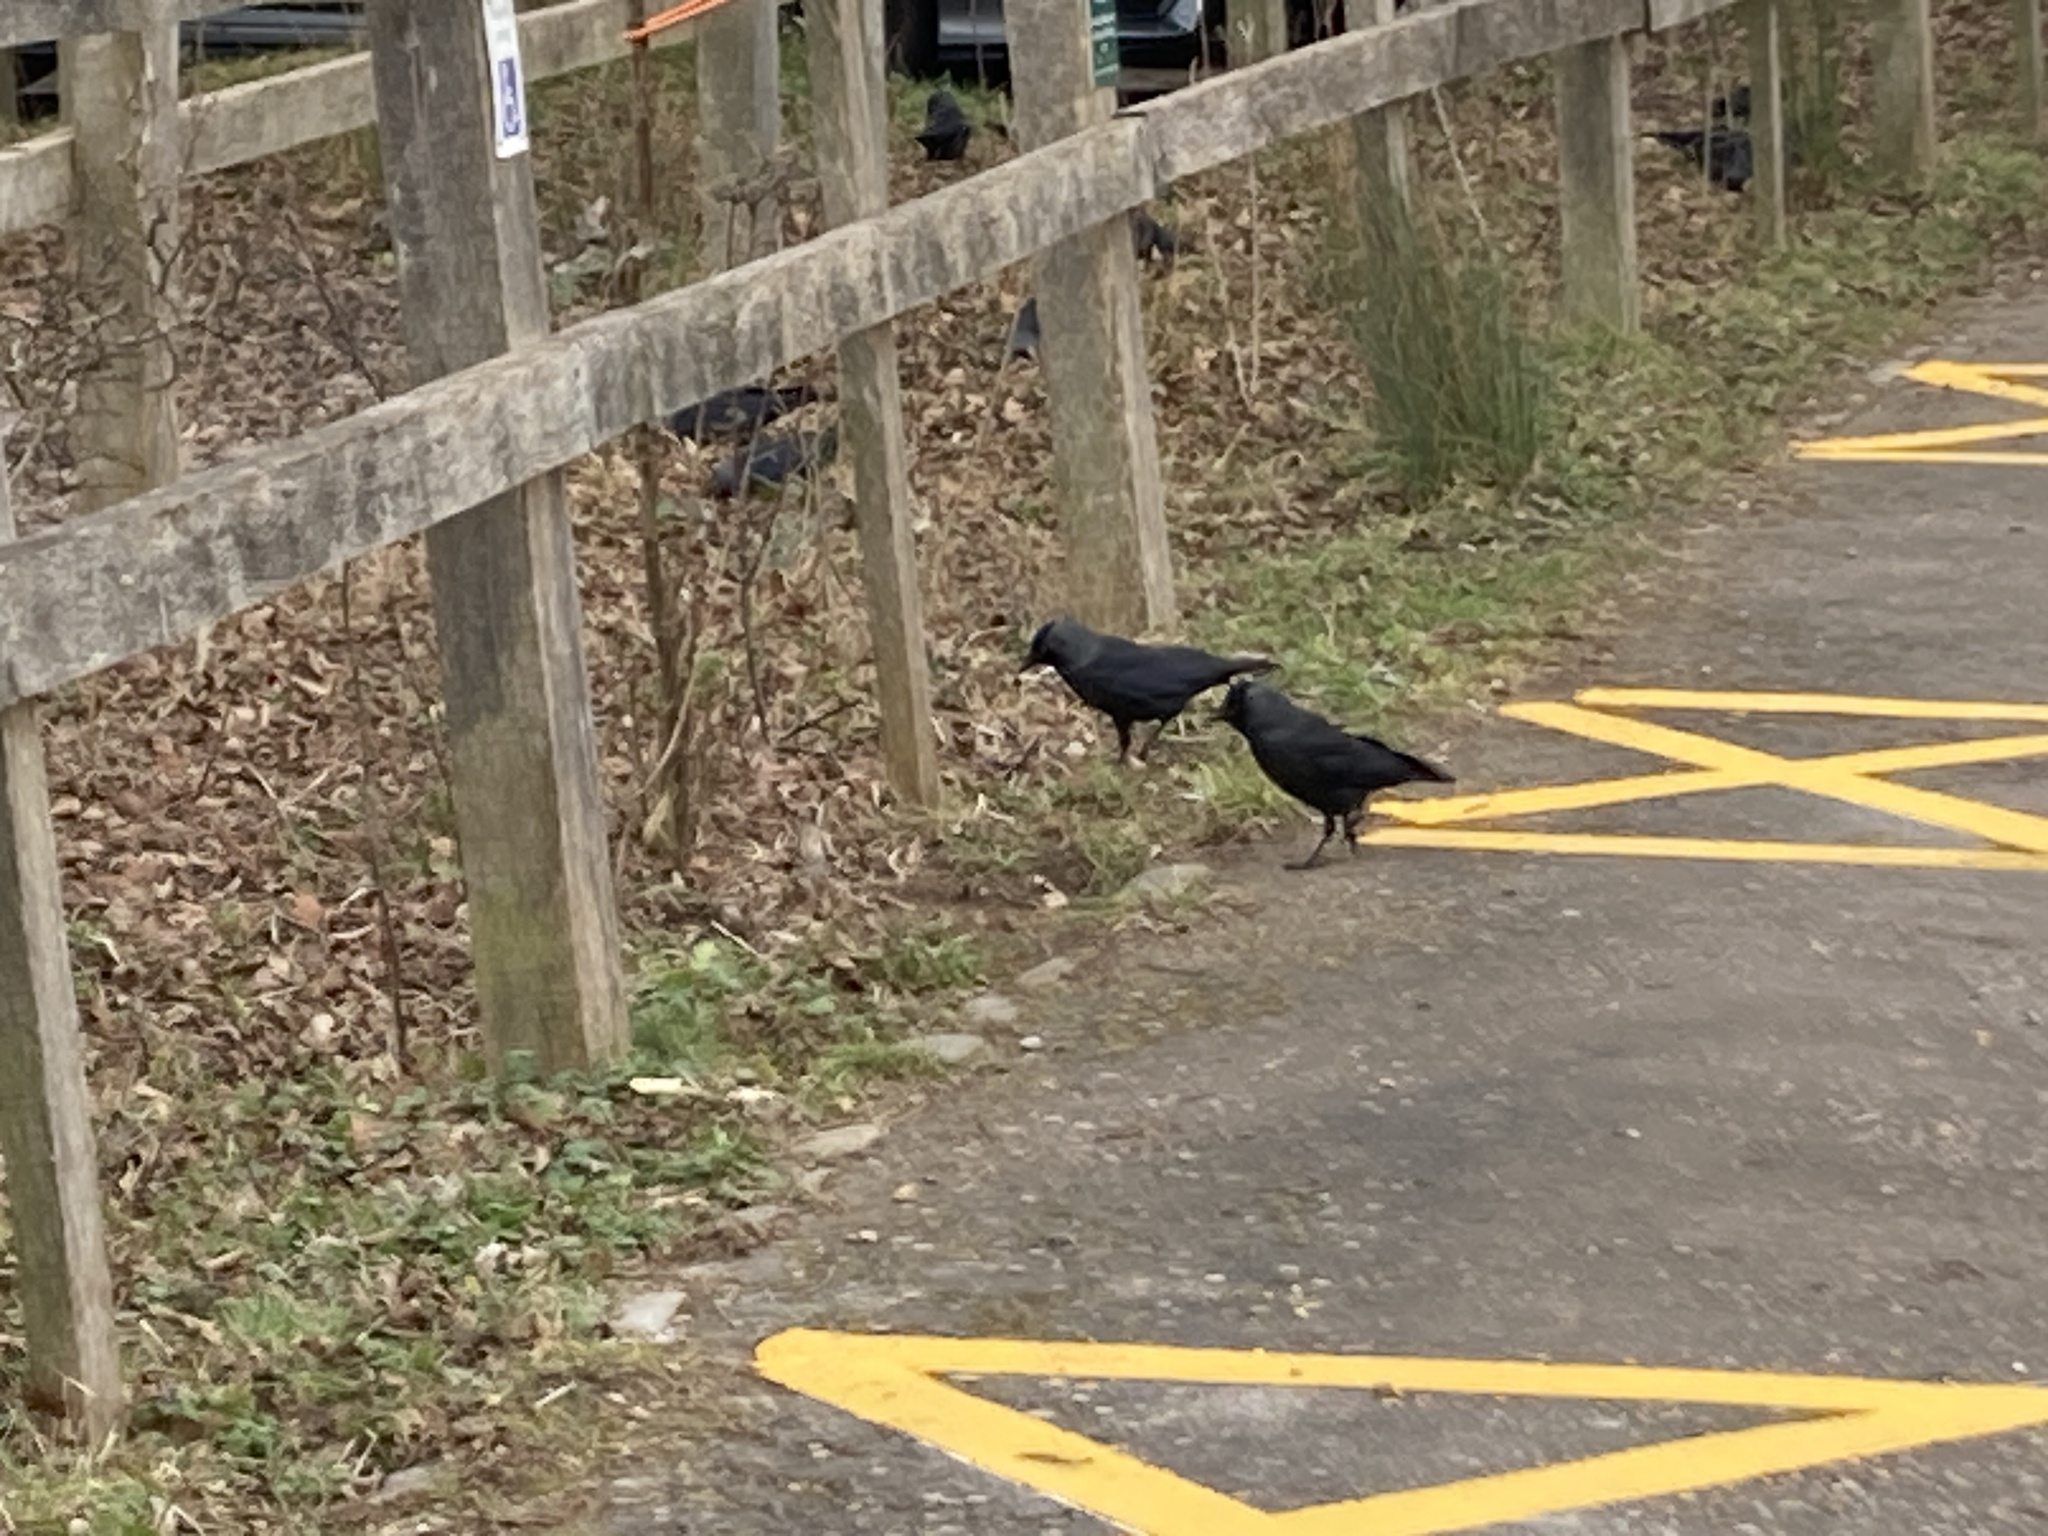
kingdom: Animalia
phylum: Chordata
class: Aves
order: Passeriformes
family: Corvidae
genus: Coloeus
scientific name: Coloeus monedula
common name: Western jackdaw
